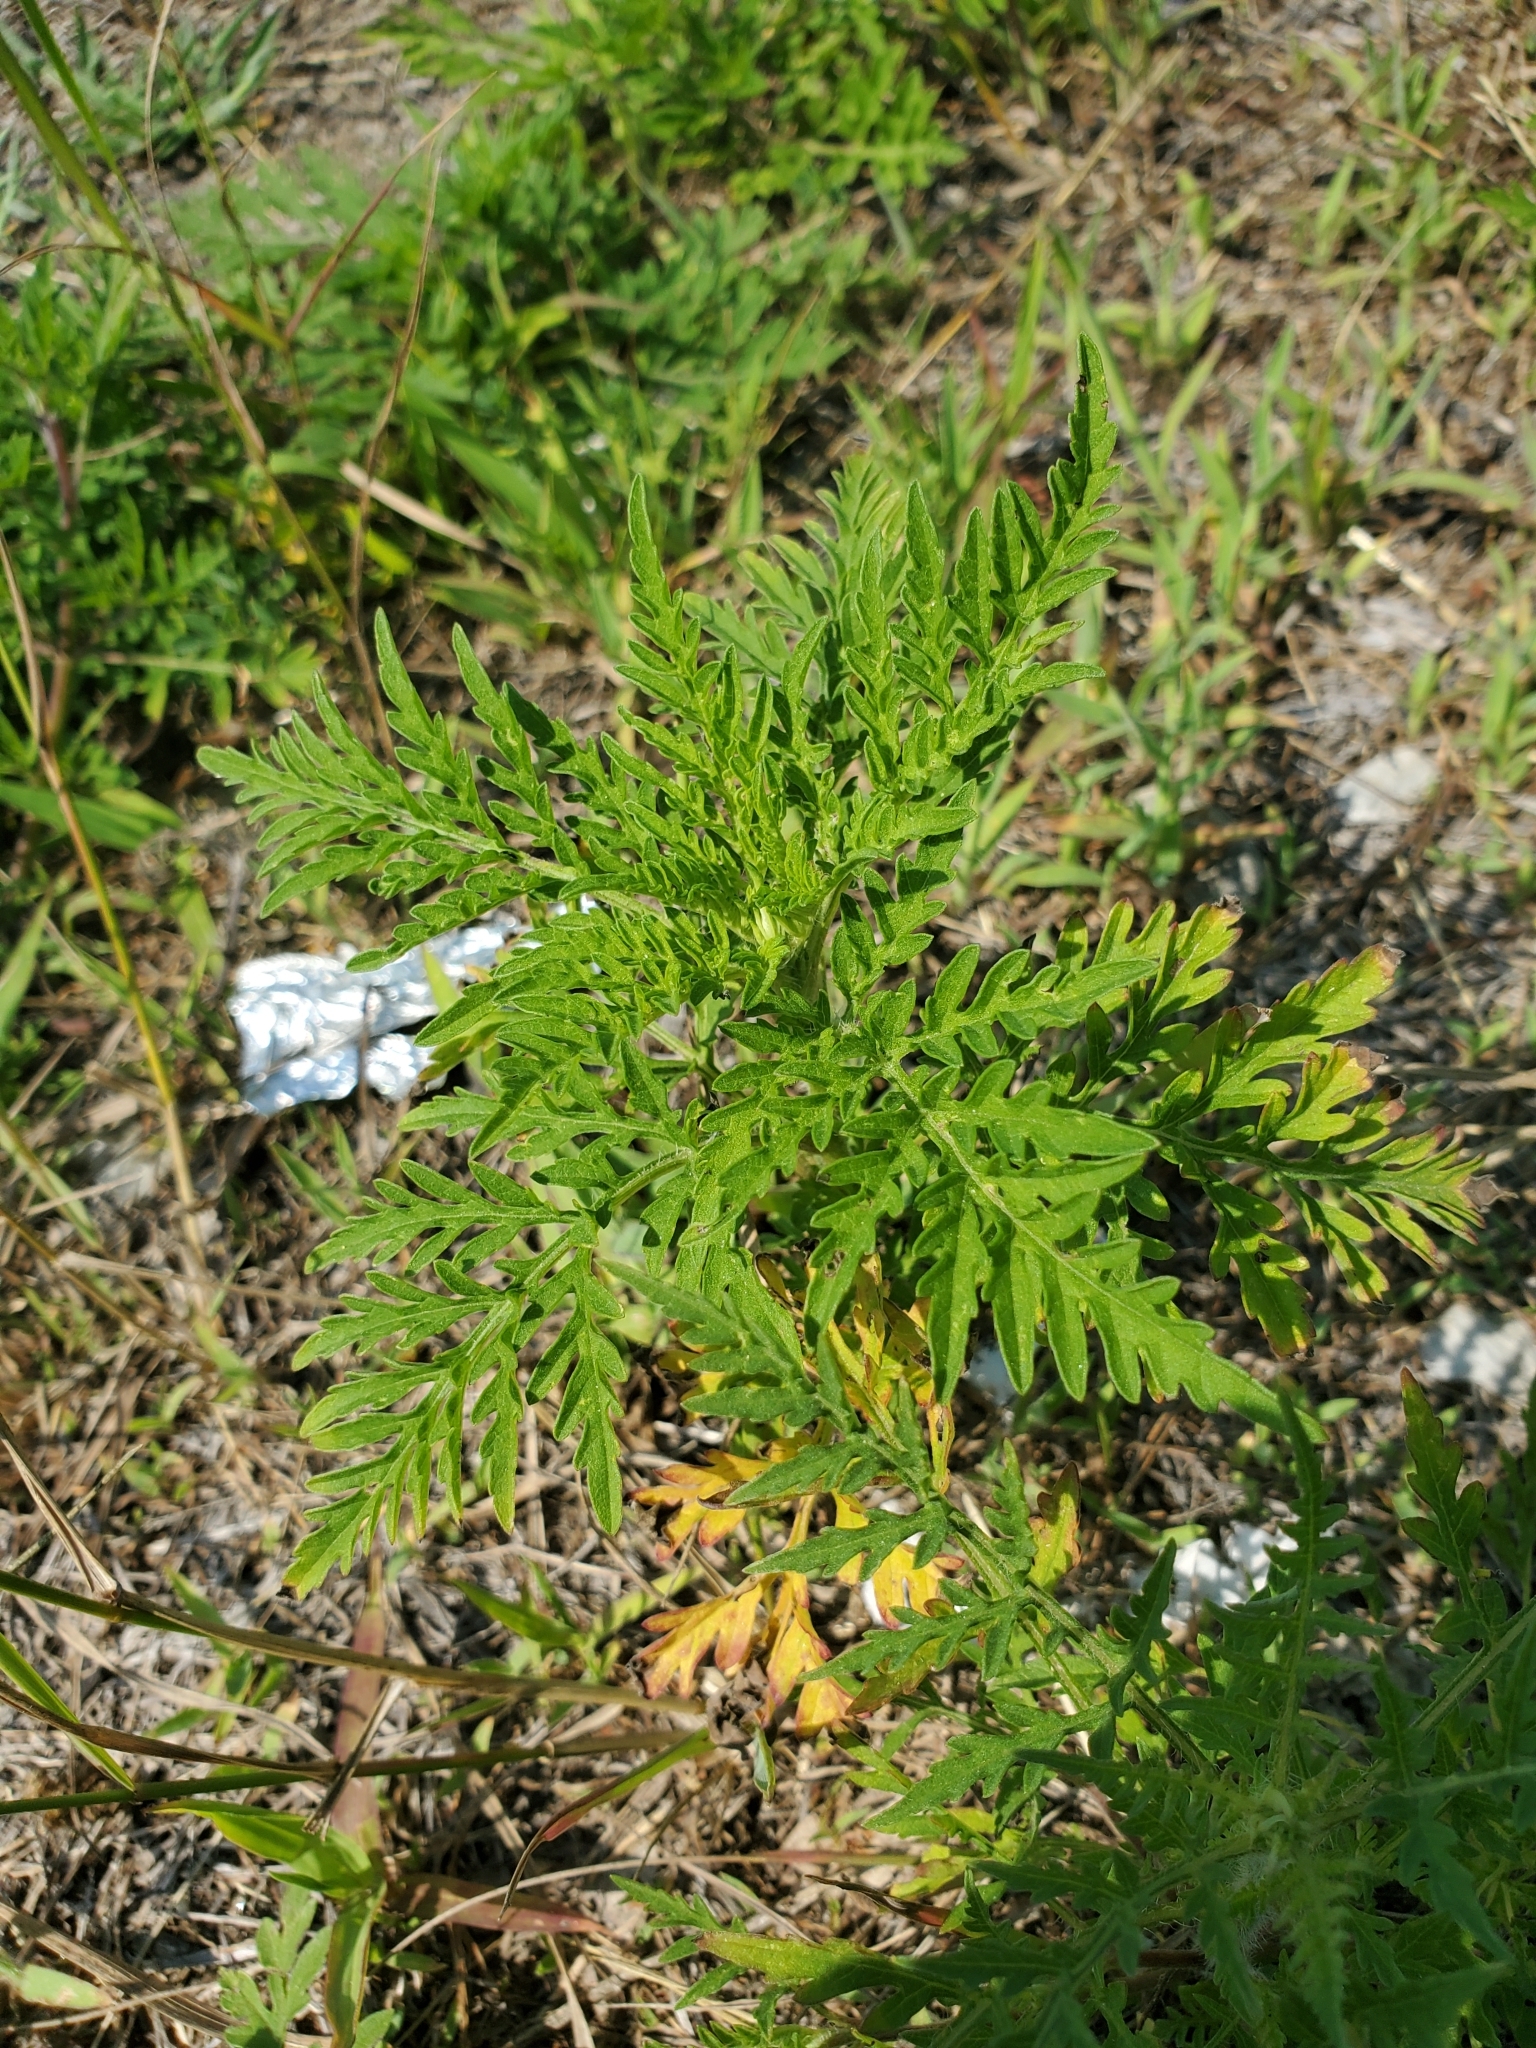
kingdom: Plantae
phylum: Tracheophyta
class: Magnoliopsida
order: Asterales
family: Asteraceae
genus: Ambrosia
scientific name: Ambrosia artemisiifolia
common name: Annual ragweed
